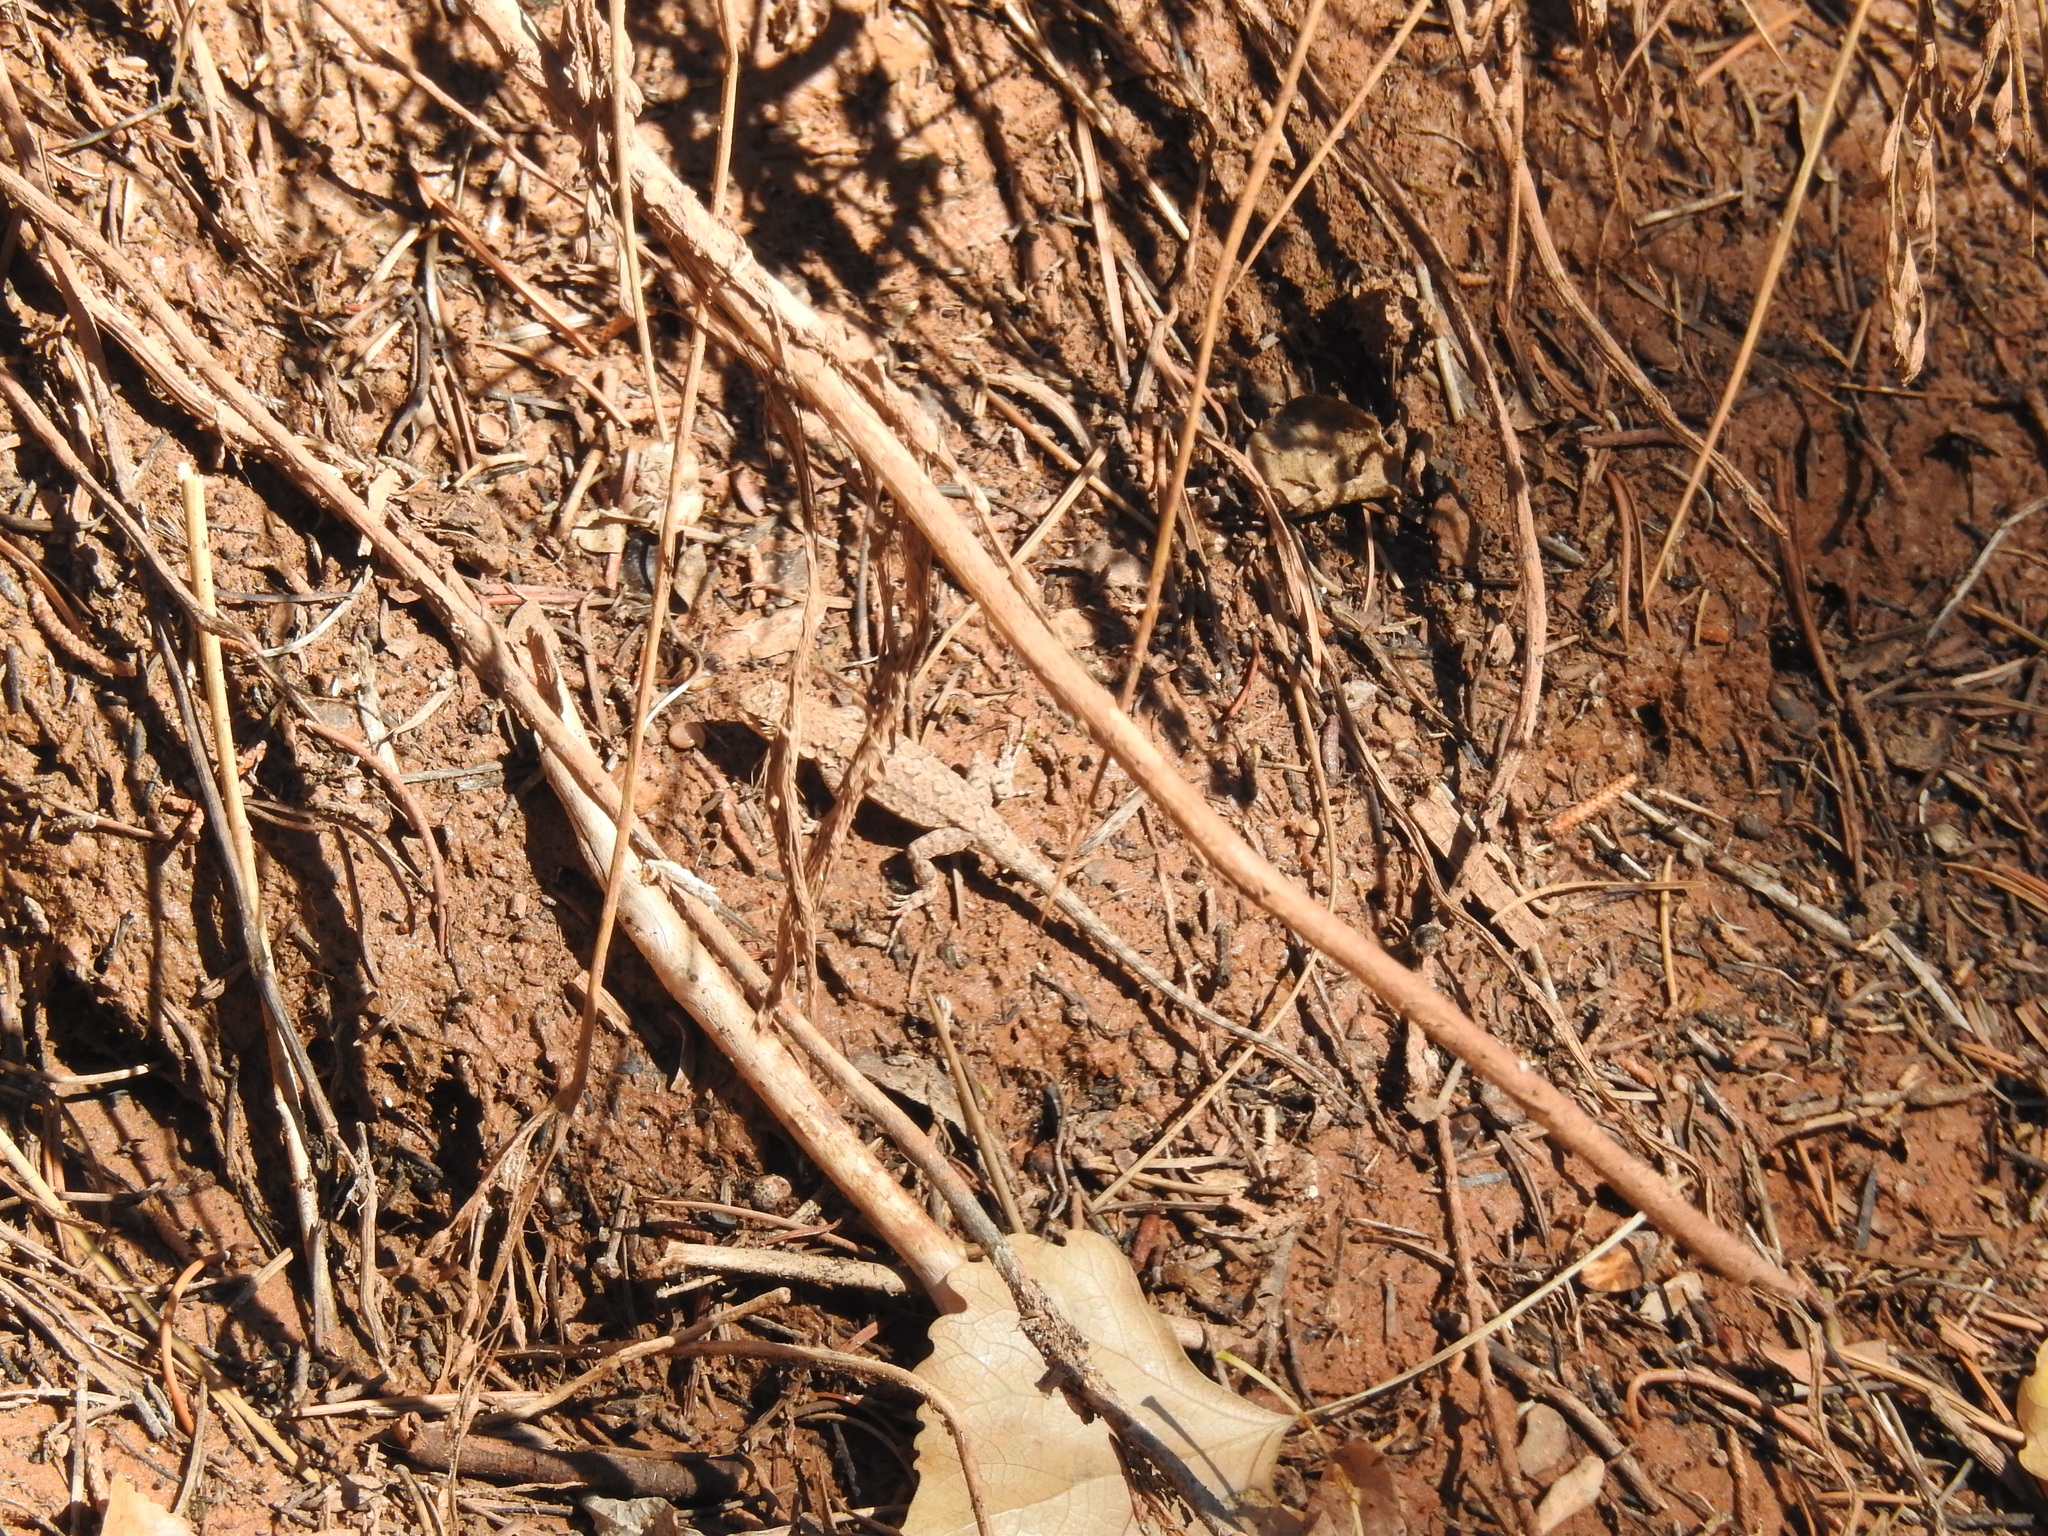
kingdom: Animalia
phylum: Chordata
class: Squamata
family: Phrynosomatidae
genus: Urosaurus
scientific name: Urosaurus ornatus
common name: Ornate tree lizard
